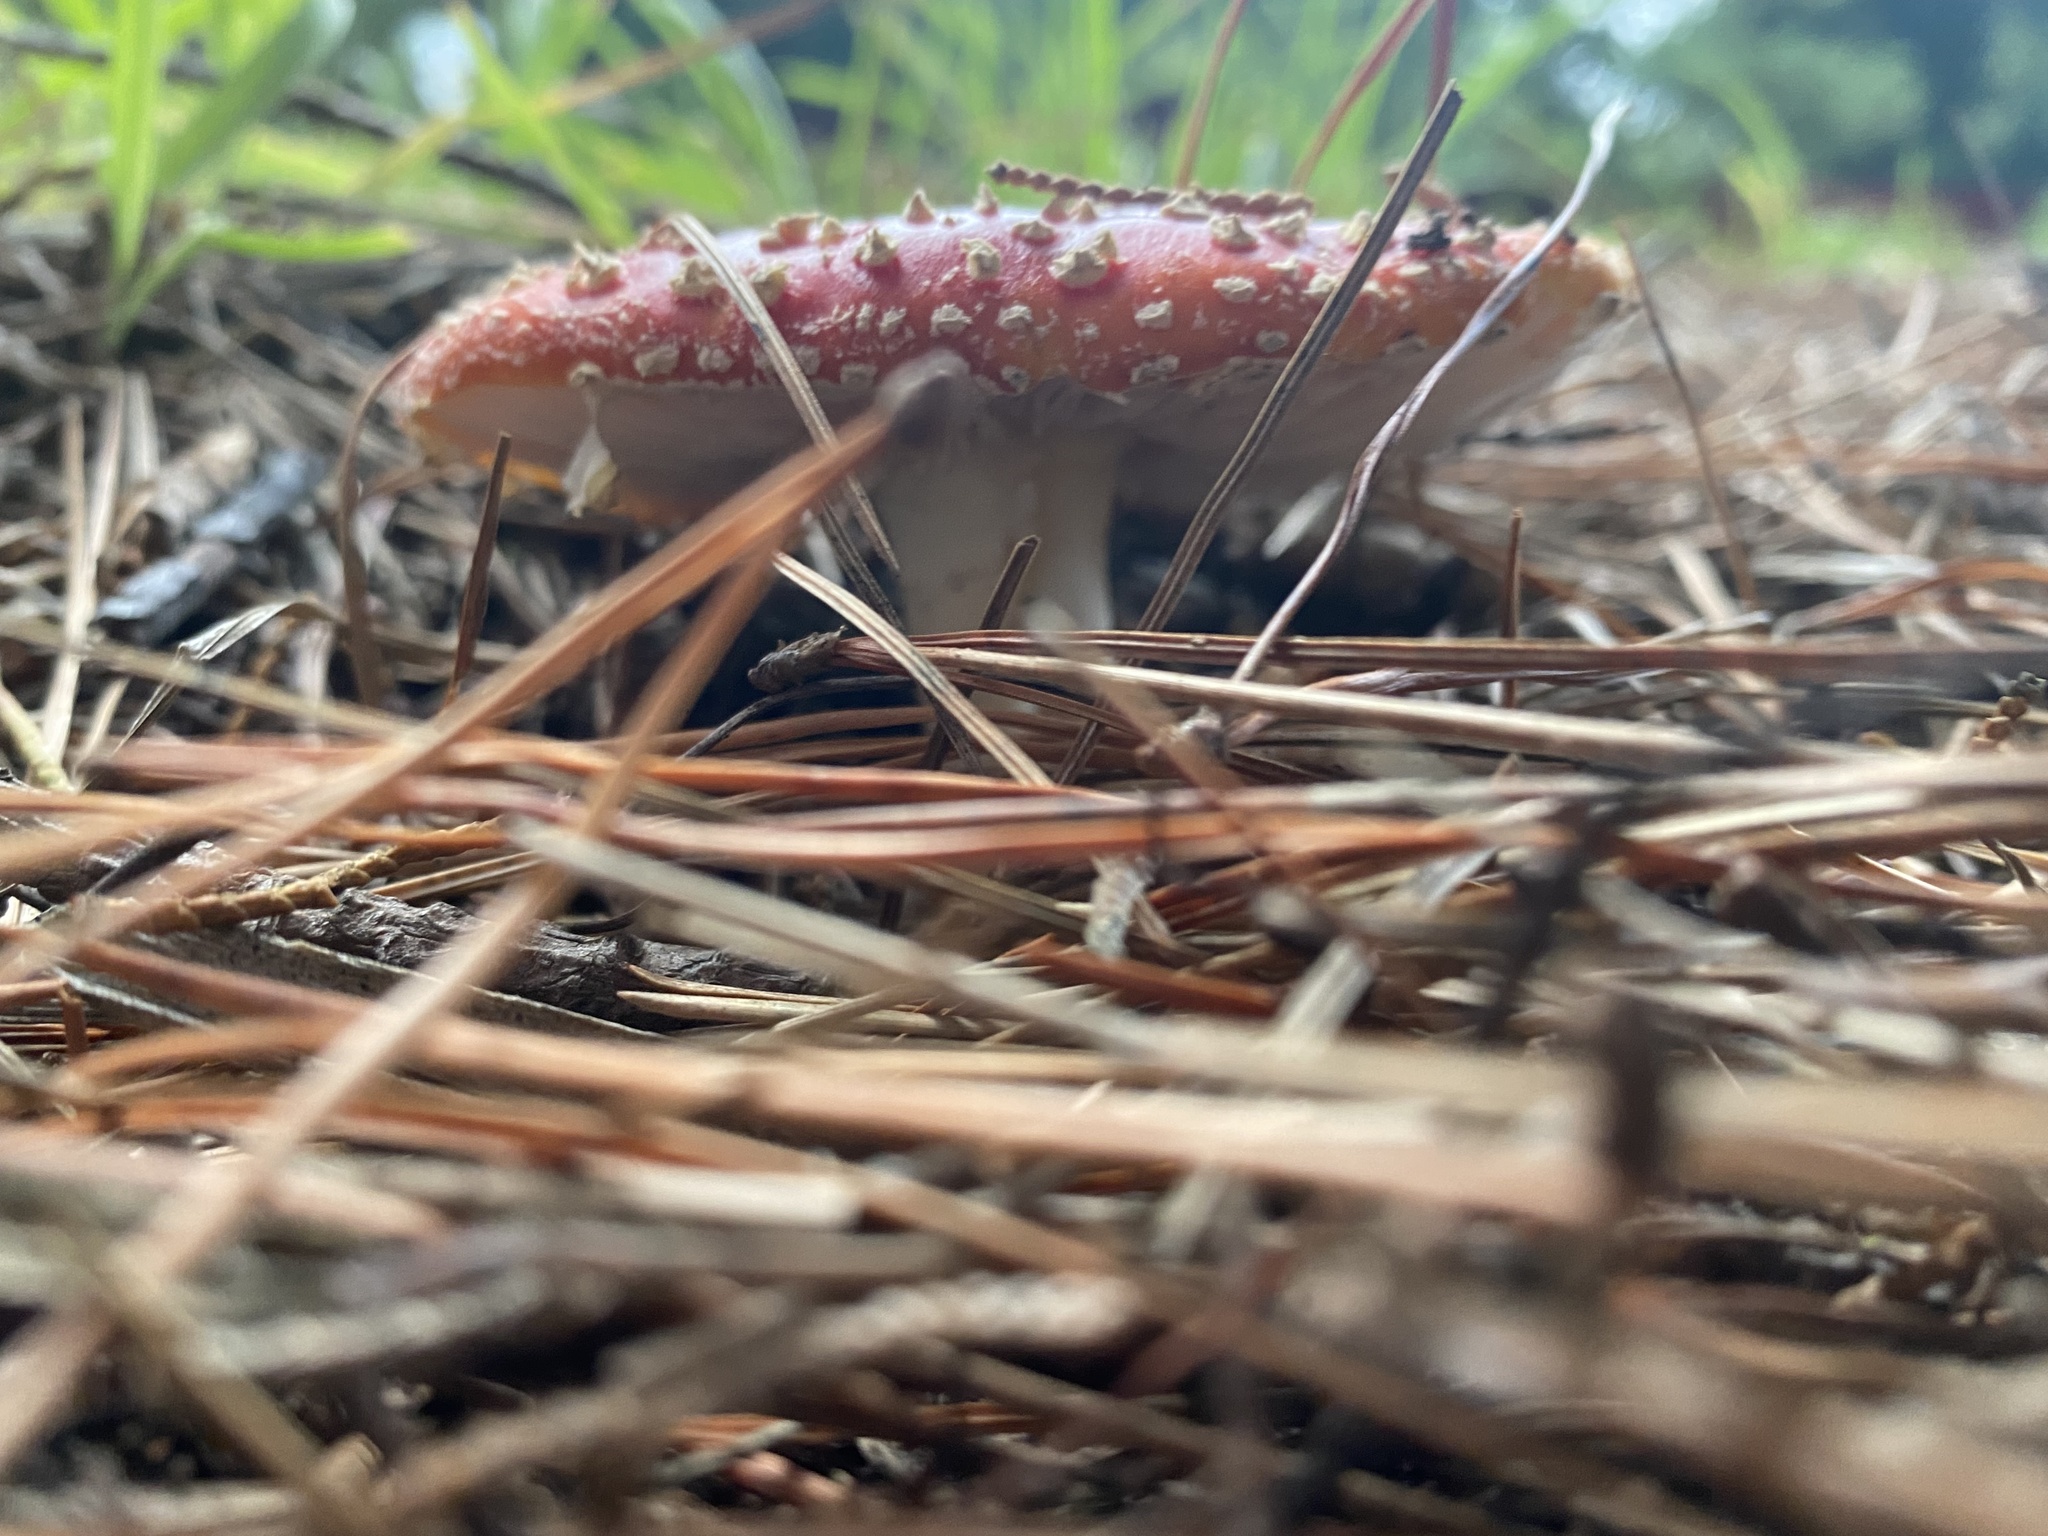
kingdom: Fungi
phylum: Basidiomycota
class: Agaricomycetes
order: Agaricales
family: Amanitaceae
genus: Amanita
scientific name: Amanita muscaria
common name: Fly agaric
